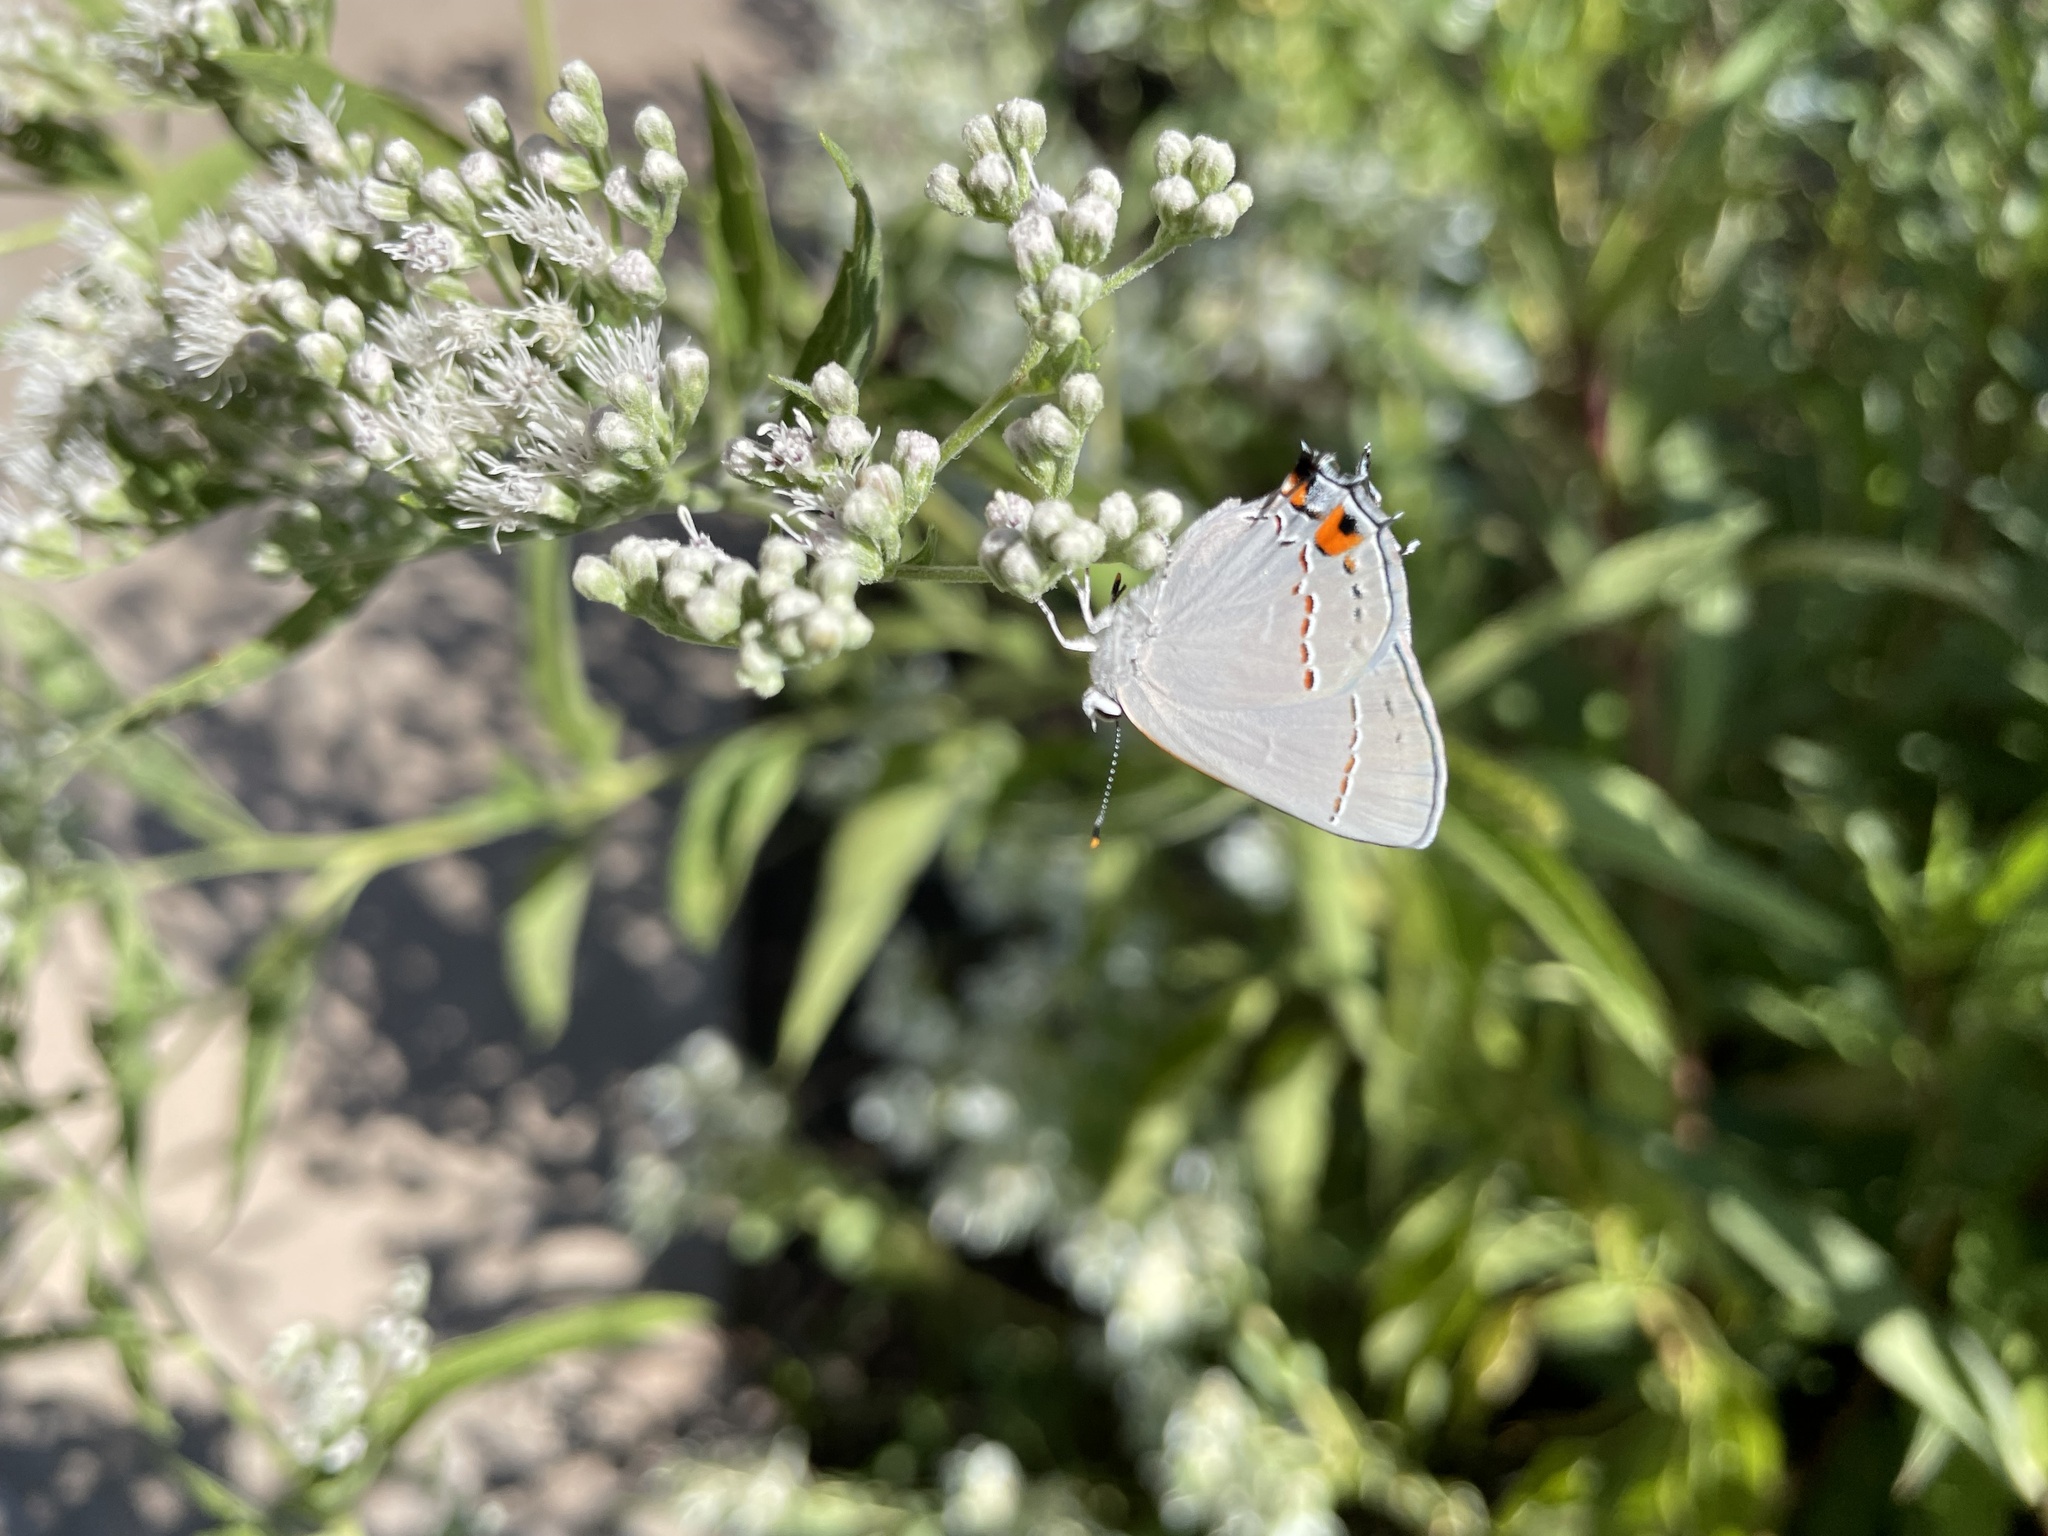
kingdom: Animalia
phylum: Arthropoda
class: Insecta
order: Lepidoptera
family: Lycaenidae
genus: Strymon
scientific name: Strymon melinus
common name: Gray hairstreak
